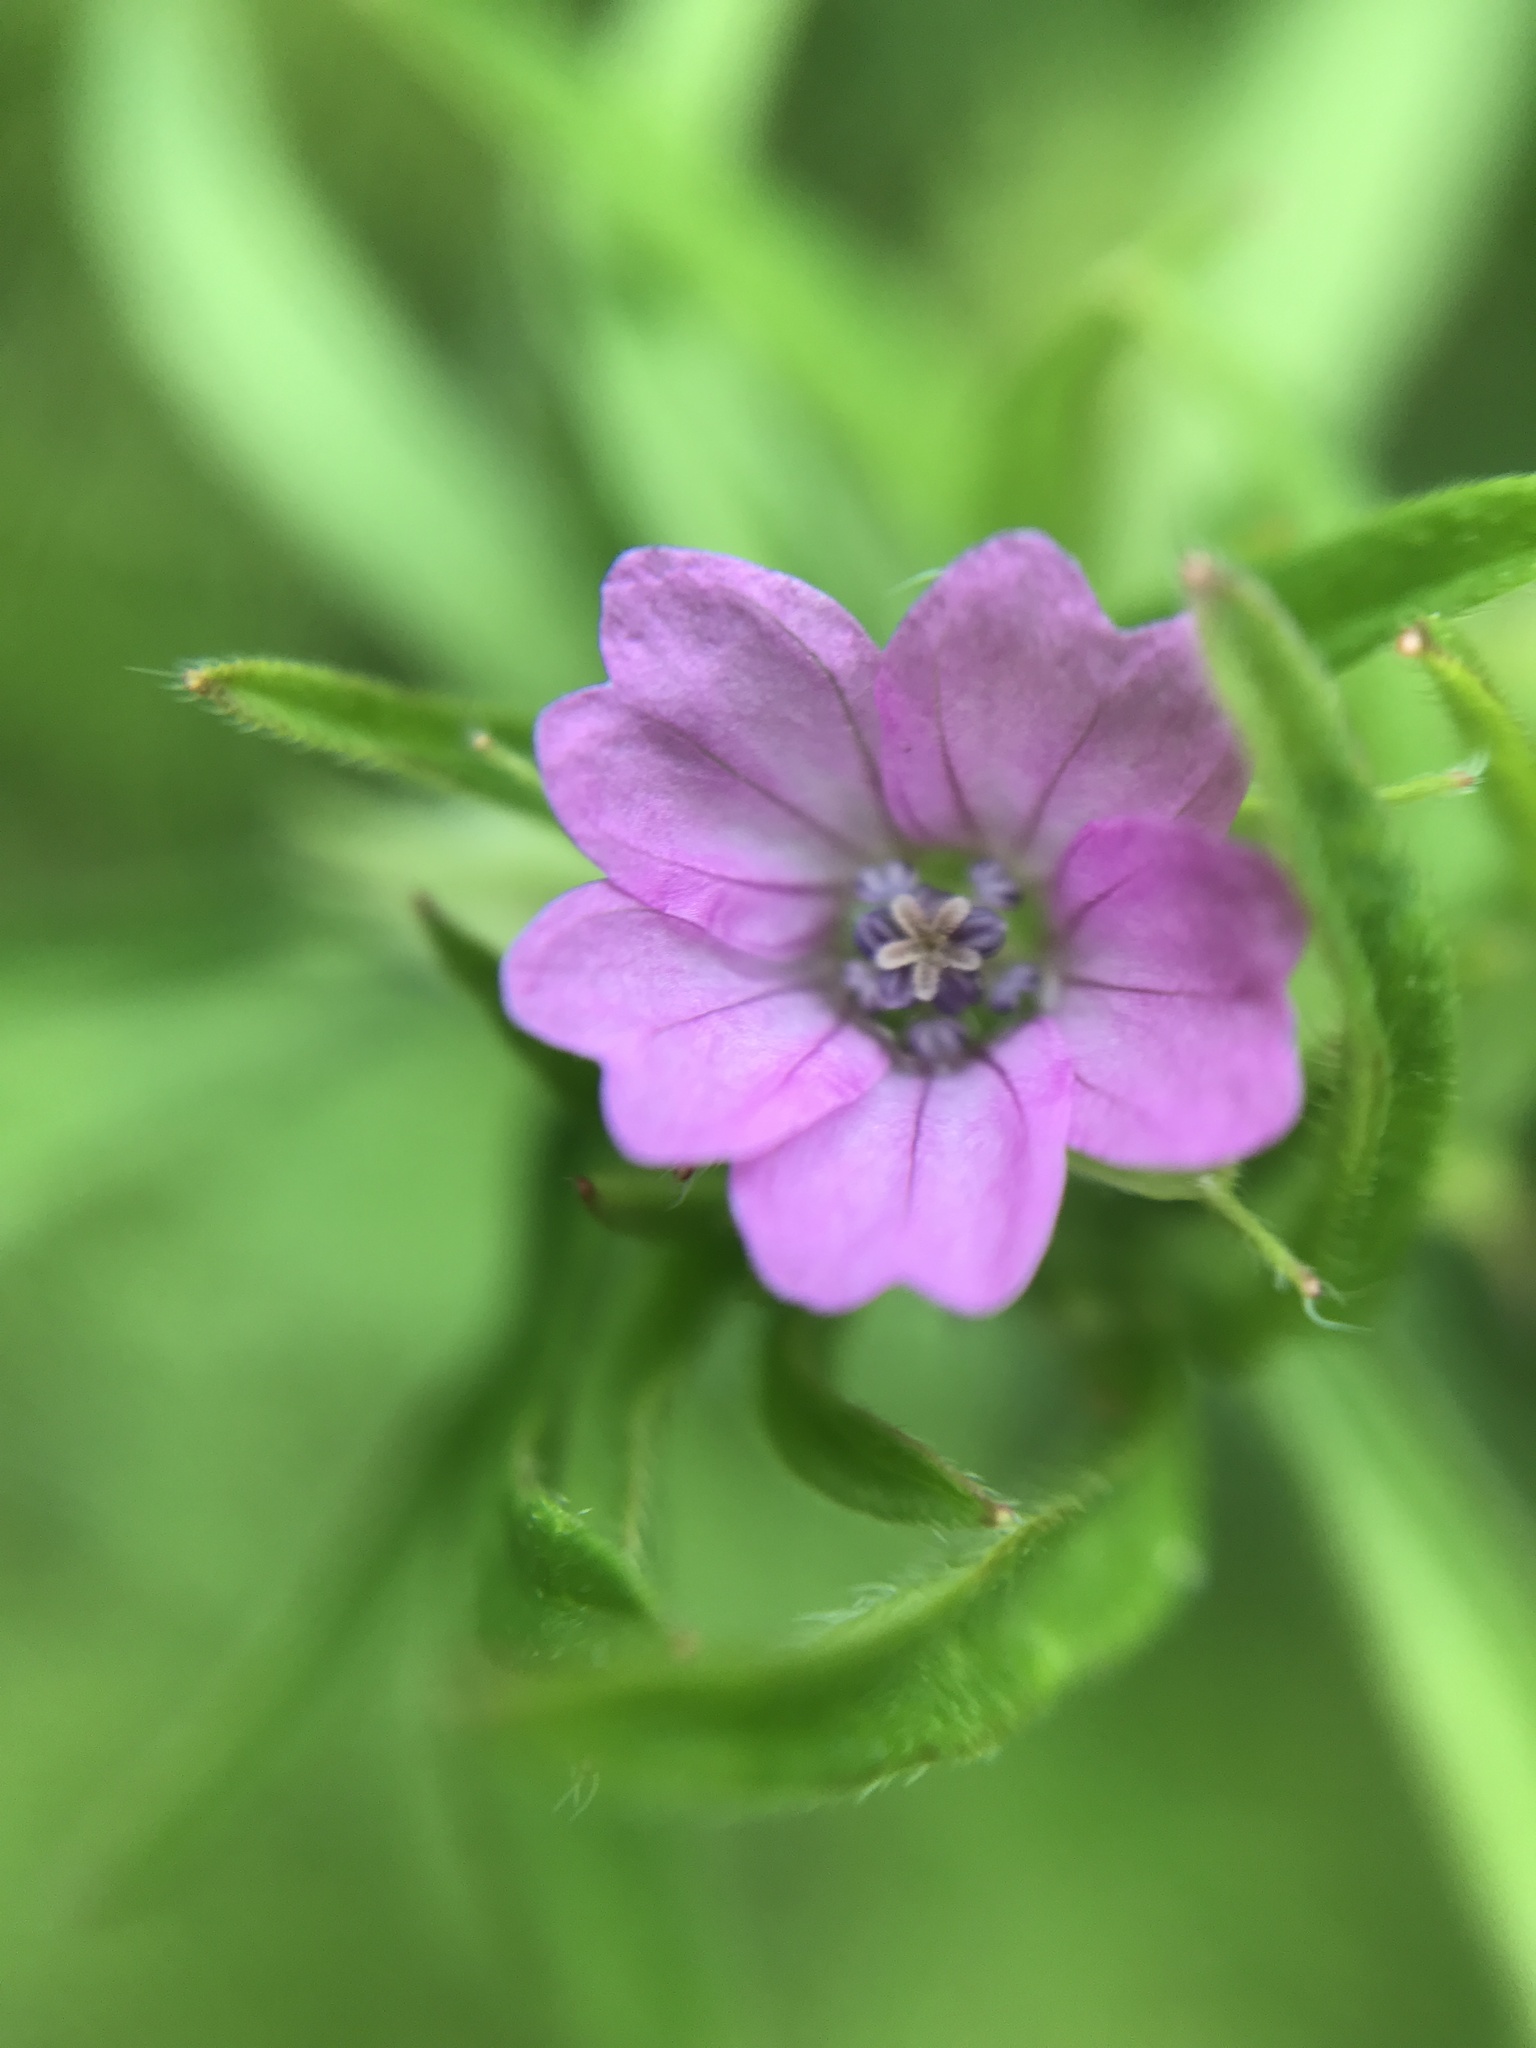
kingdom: Plantae
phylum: Tracheophyta
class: Magnoliopsida
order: Geraniales
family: Geraniaceae
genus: Geranium
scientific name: Geranium dissectum
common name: Cut-leaved crane's-bill
